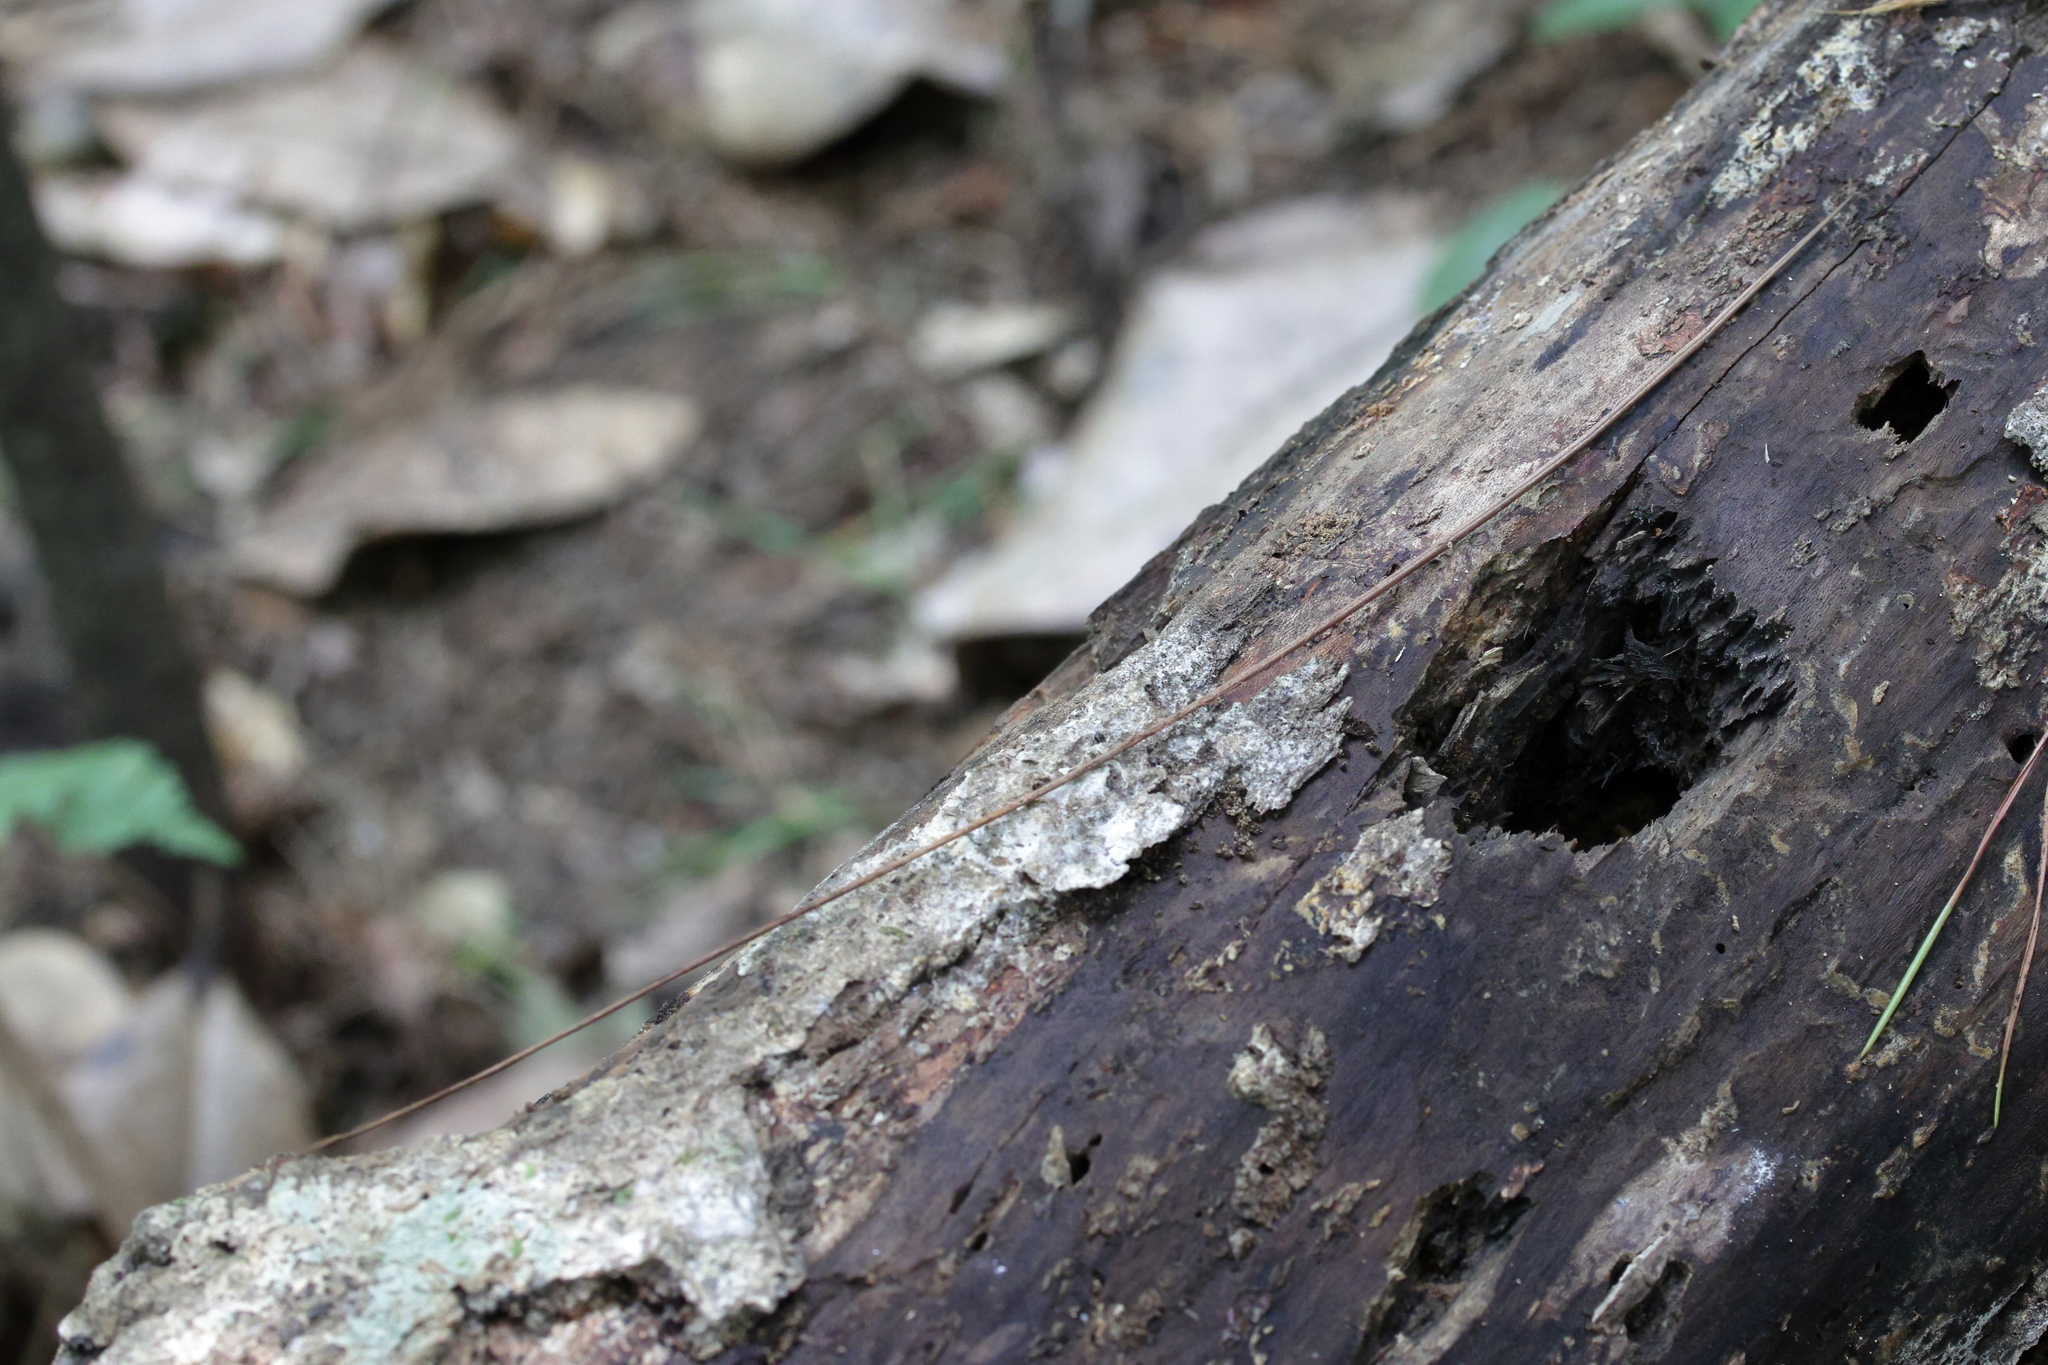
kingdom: Plantae
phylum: Tracheophyta
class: Liliopsida
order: Alismatales
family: Araceae
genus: Arisaema
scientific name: Arisaema triphyllum
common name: Jack-in-the-pulpit
